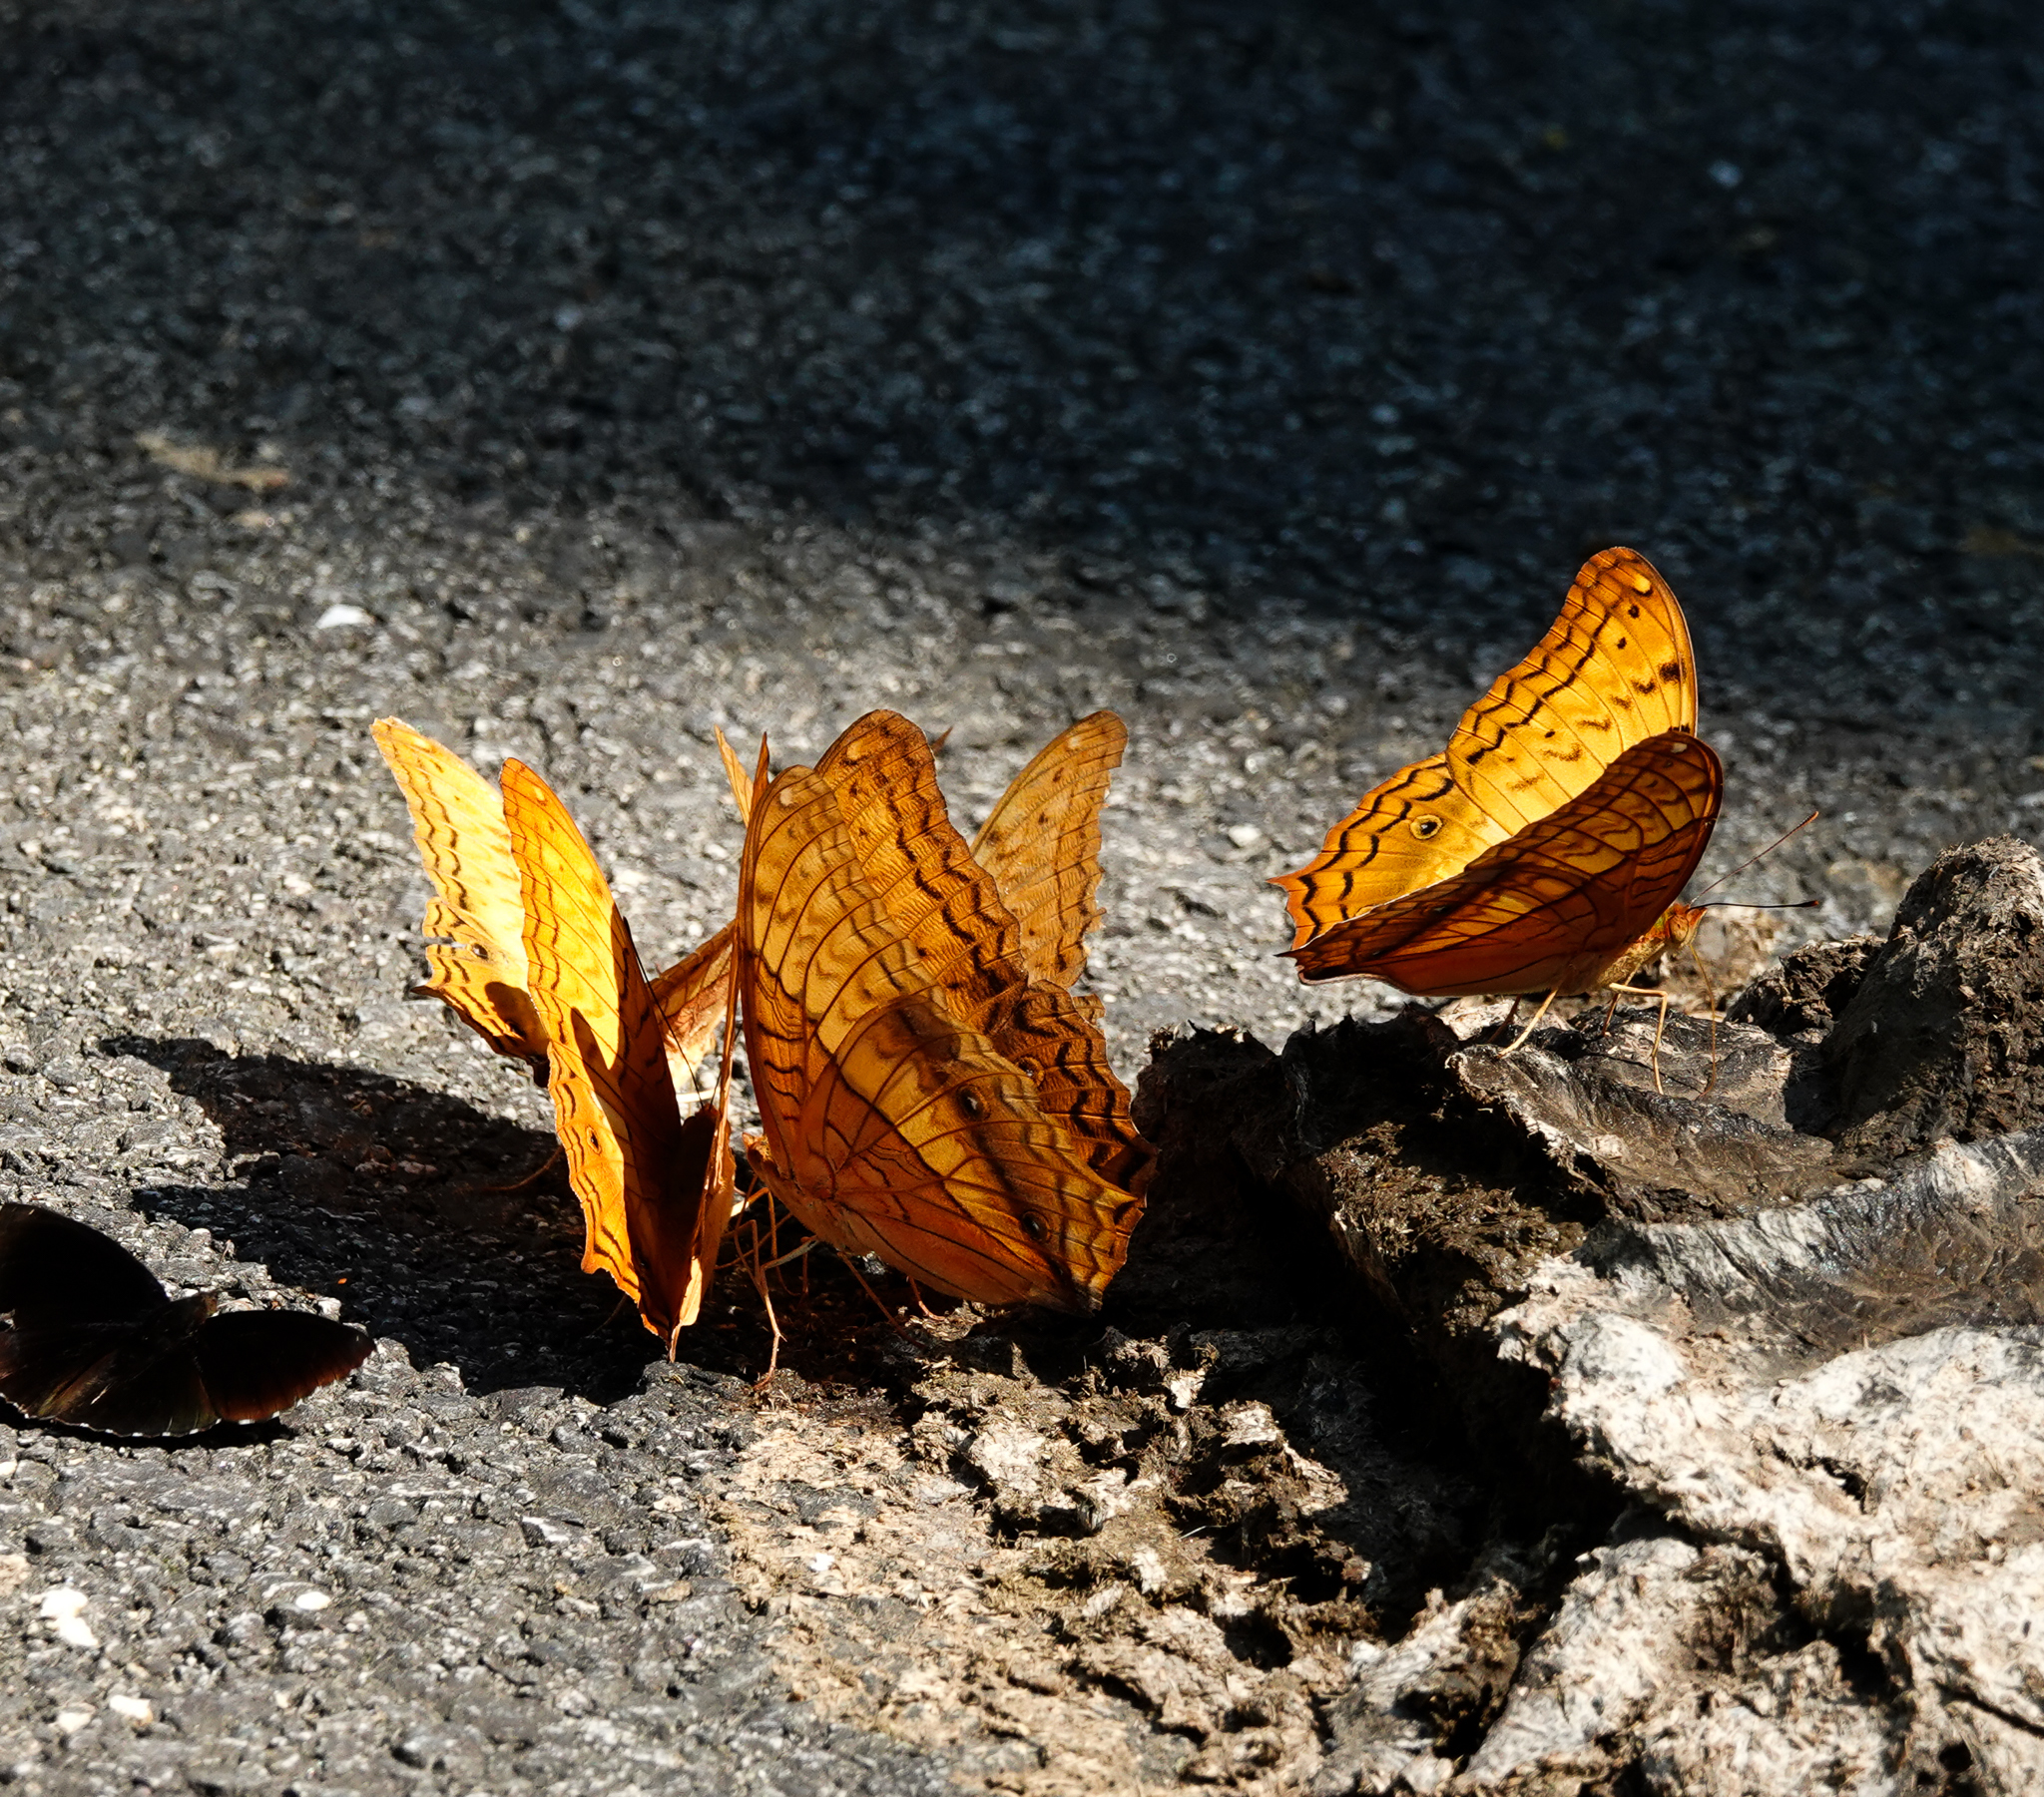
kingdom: Animalia
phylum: Arthropoda
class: Insecta
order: Lepidoptera
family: Nymphalidae
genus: Vindula
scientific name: Vindula erota
